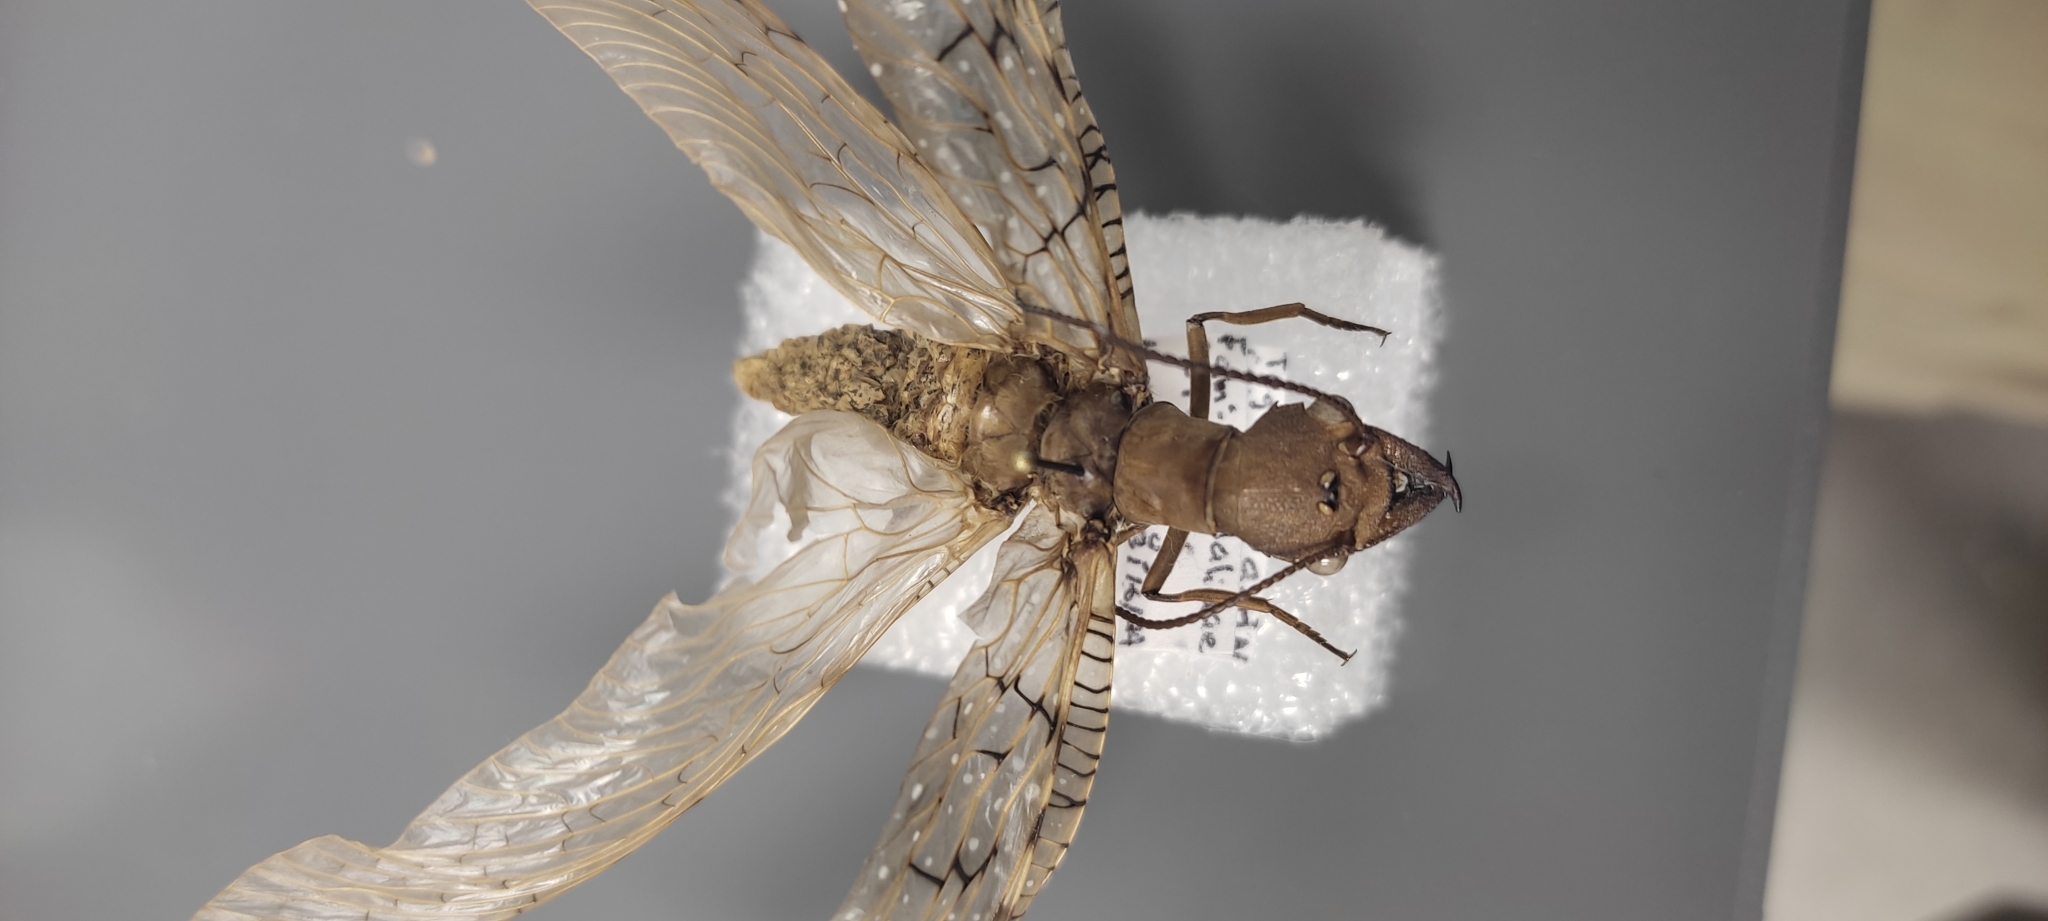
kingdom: Animalia
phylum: Arthropoda
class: Insecta
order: Megaloptera
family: Corydalidae
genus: Corydalus
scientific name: Corydalus luteus
